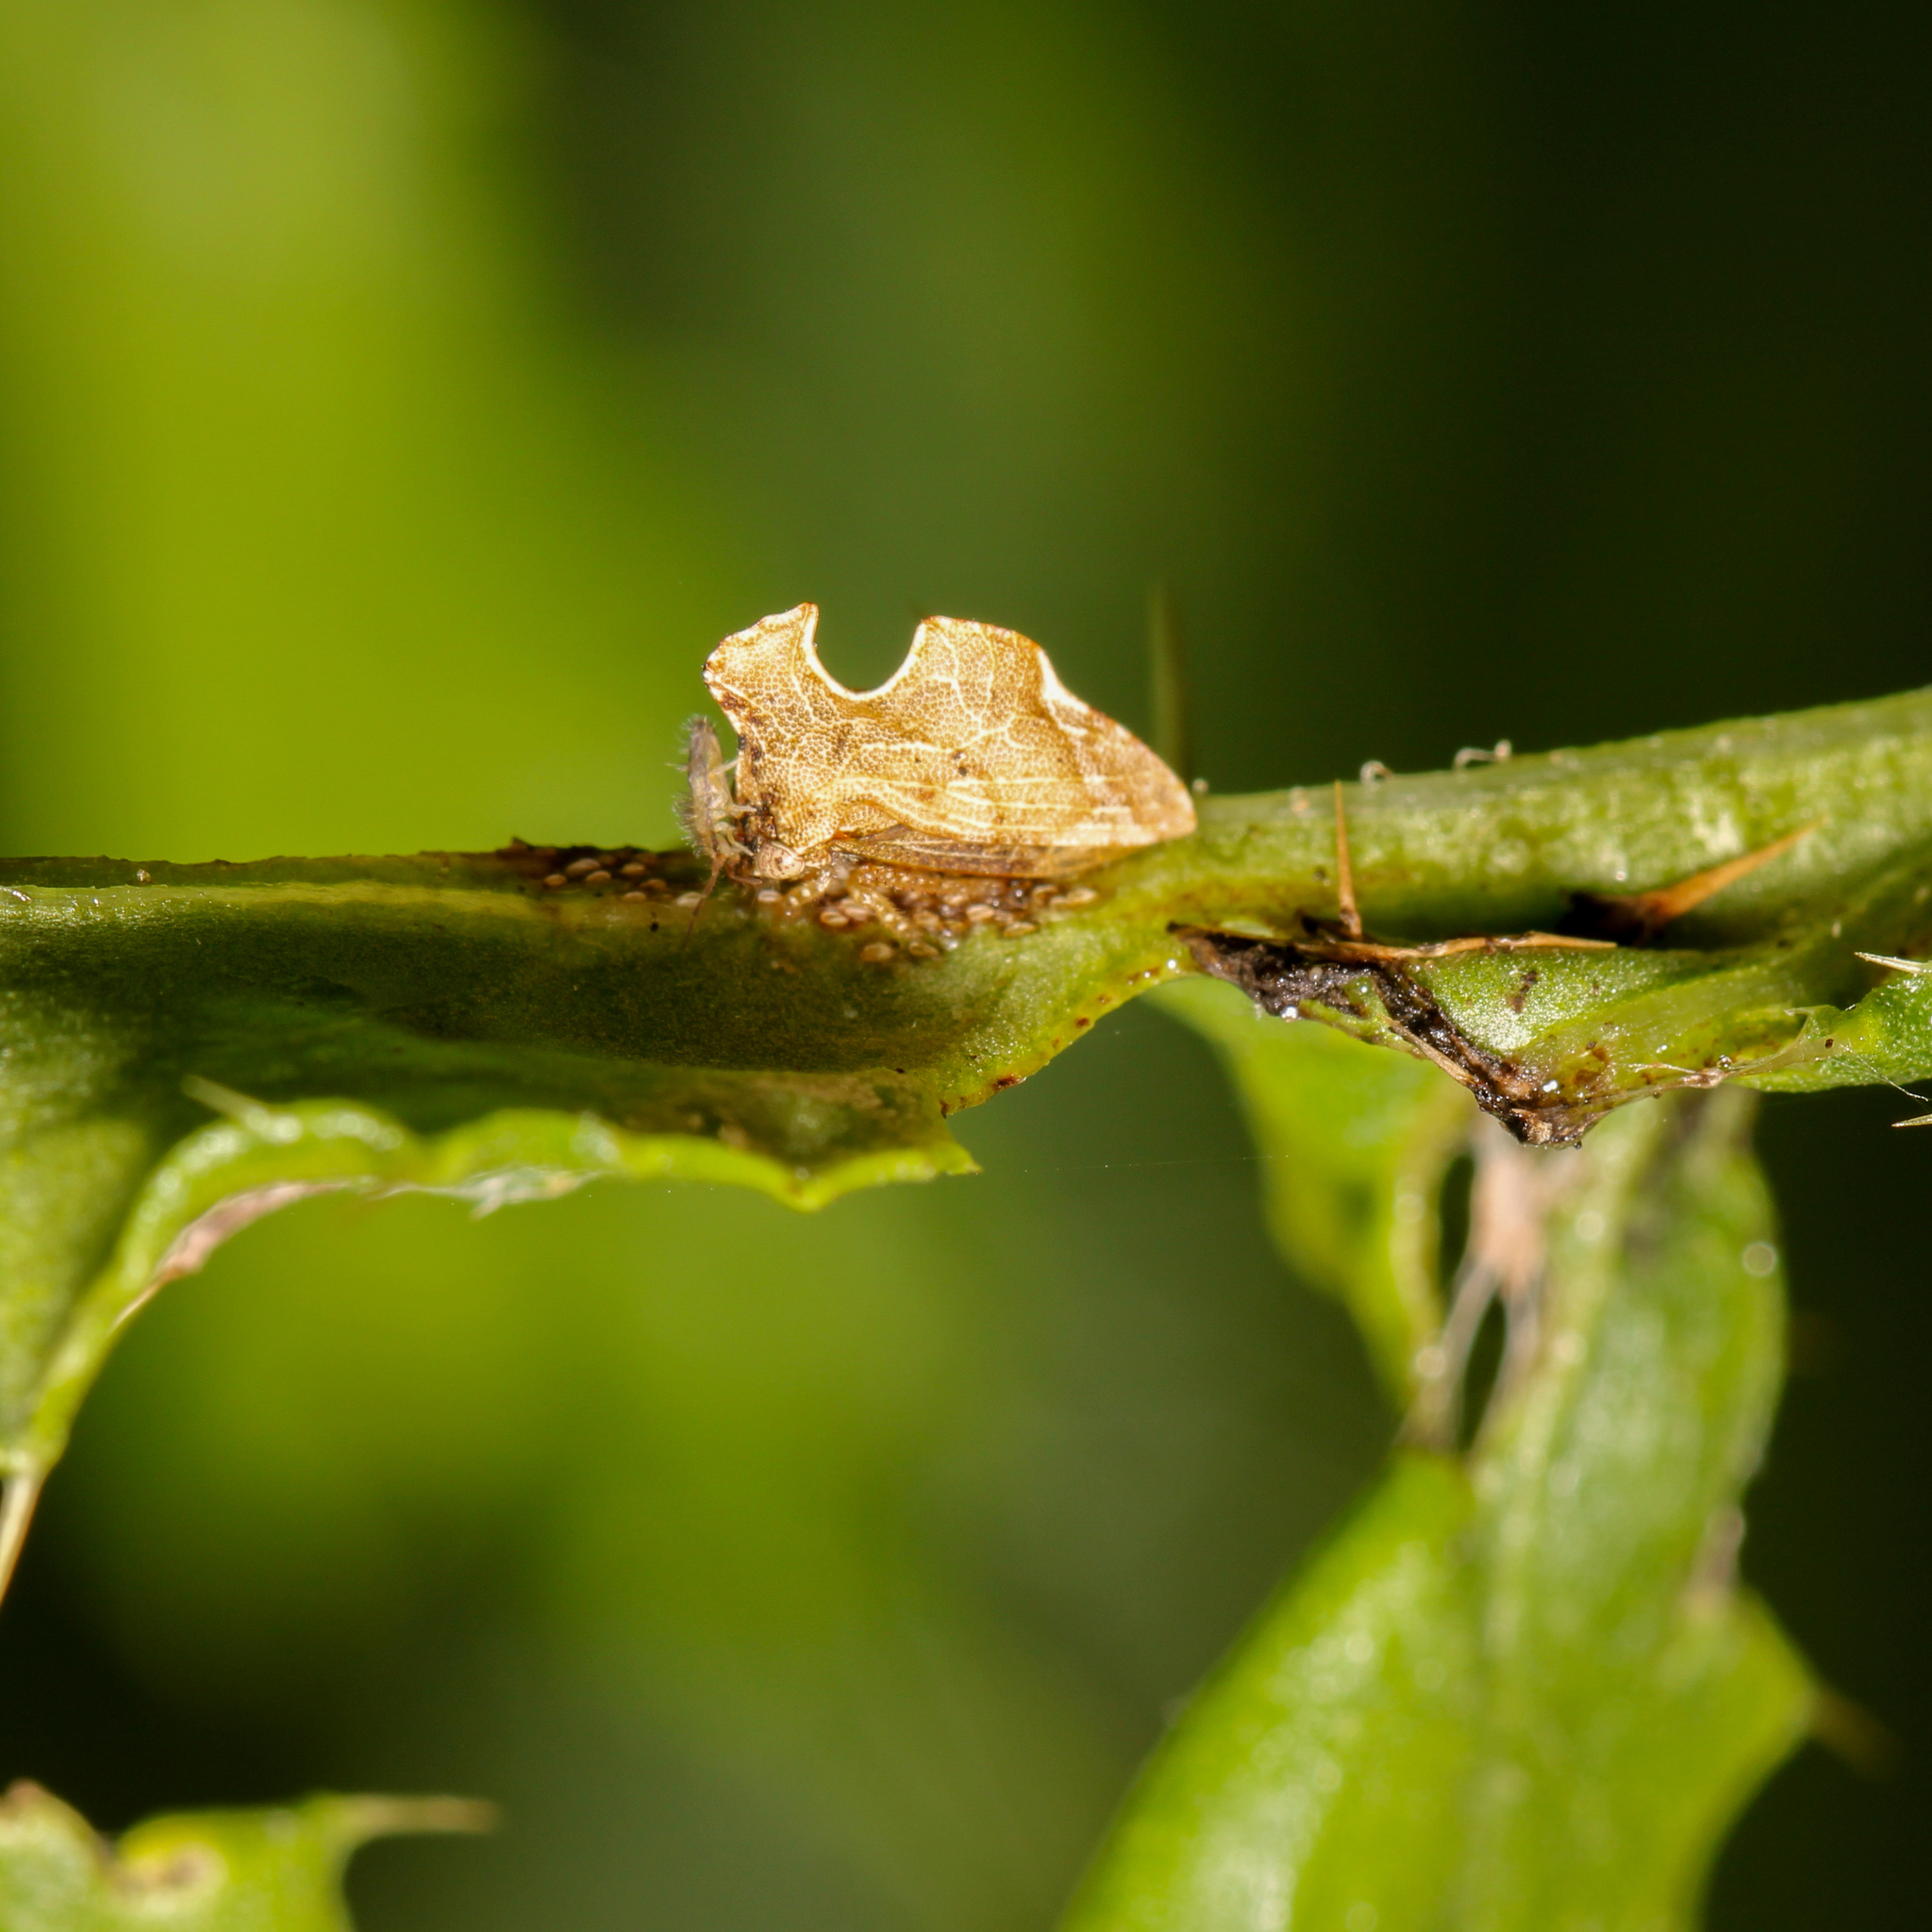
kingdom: Animalia
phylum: Arthropoda
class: Insecta
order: Hemiptera
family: Membracidae
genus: Entylia
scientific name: Entylia carinata
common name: Keeled treehopper
